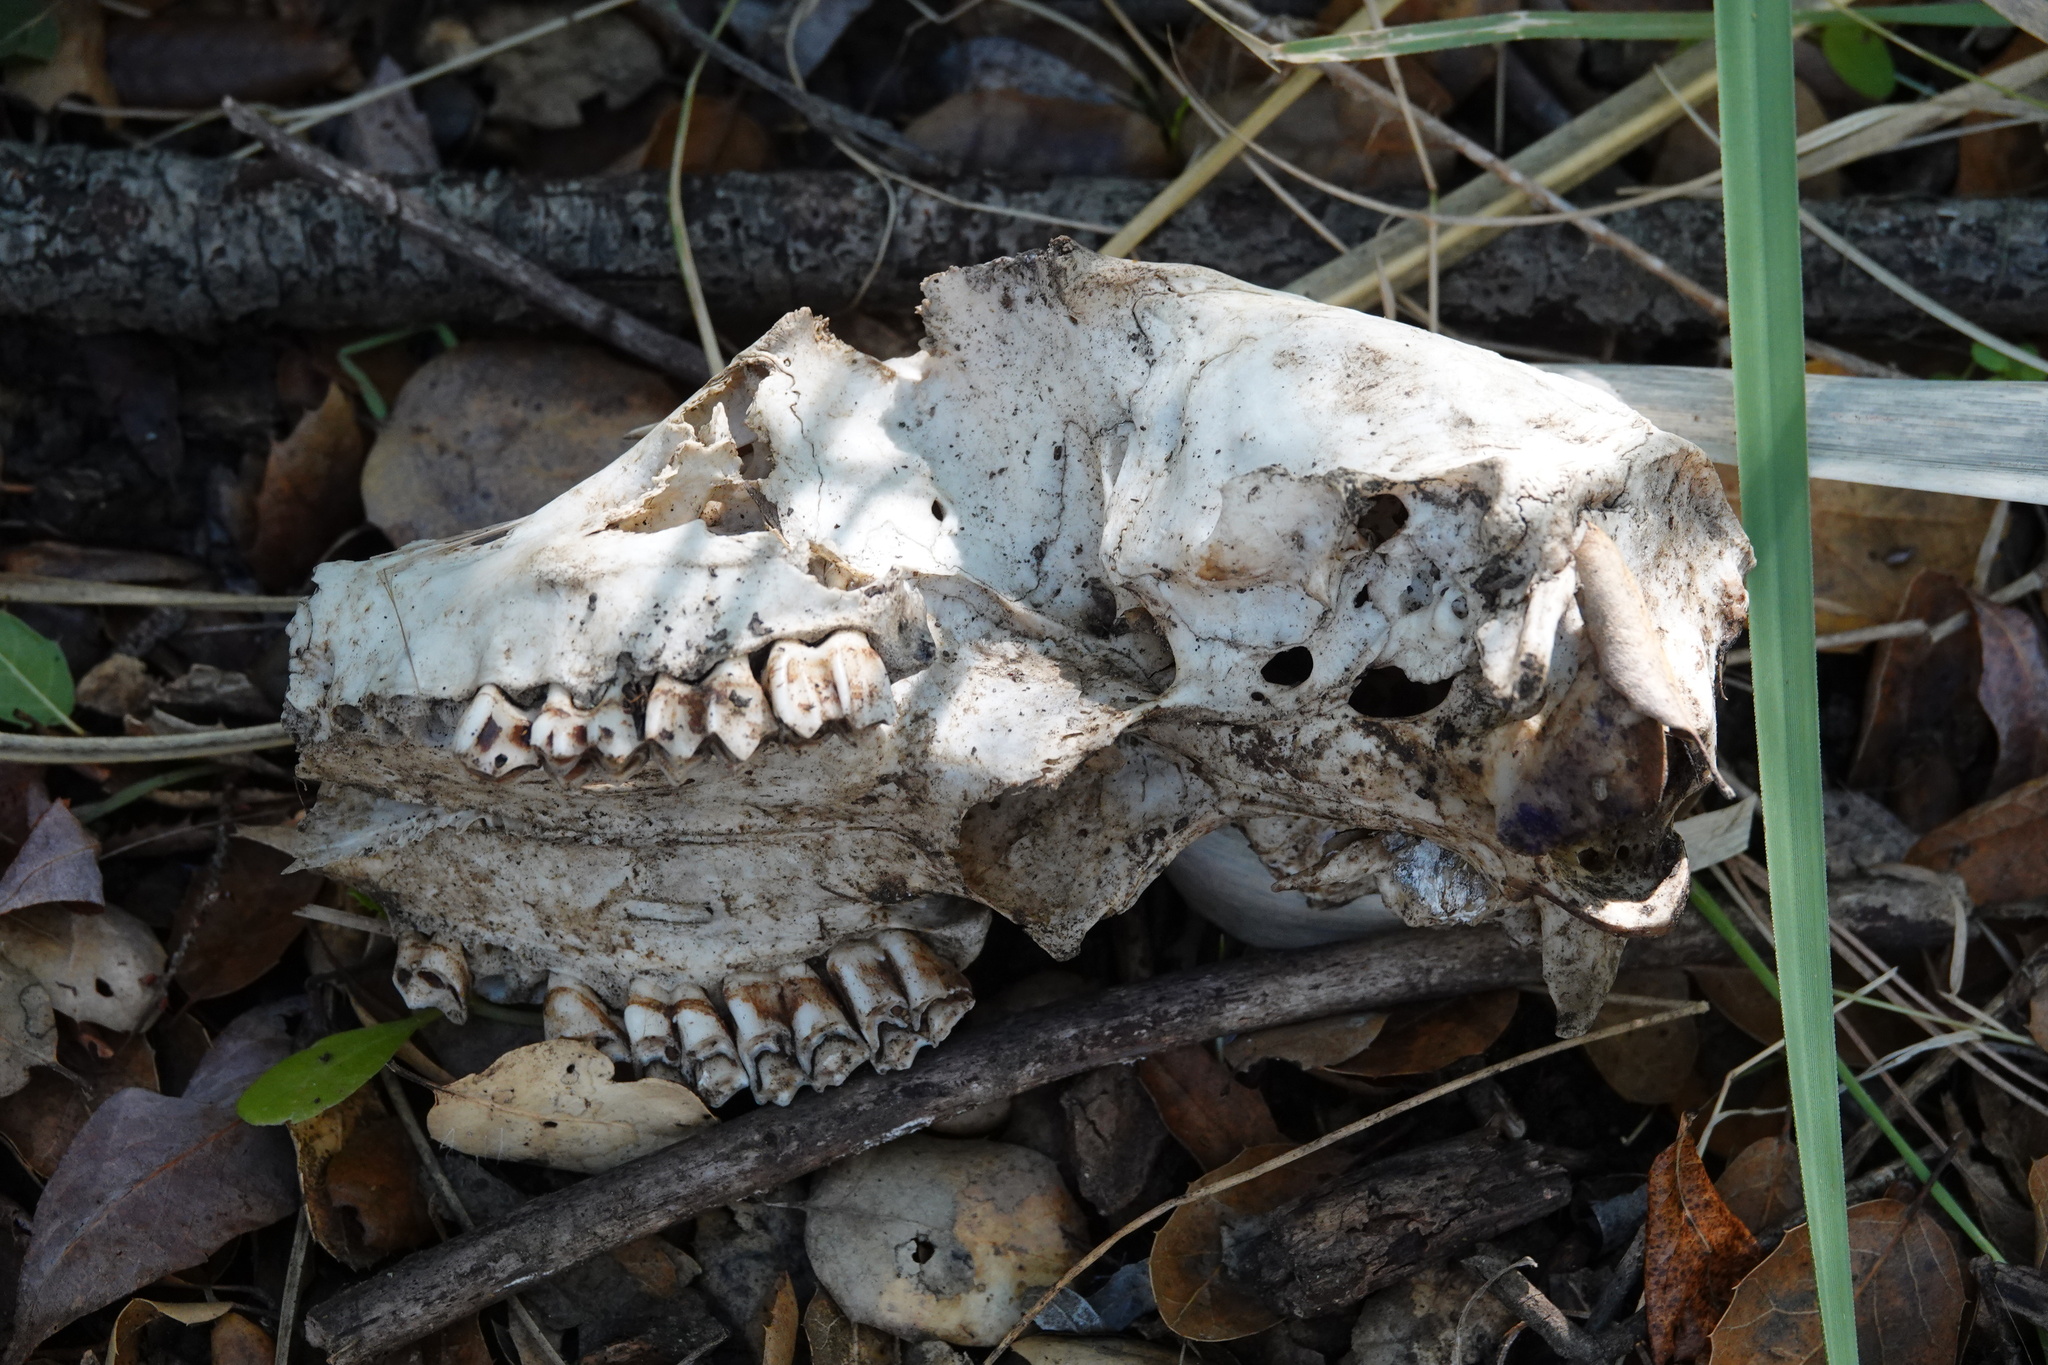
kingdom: Animalia
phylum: Chordata
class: Mammalia
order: Artiodactyla
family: Cervidae
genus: Odocoileus
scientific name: Odocoileus hemionus
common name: Mule deer
